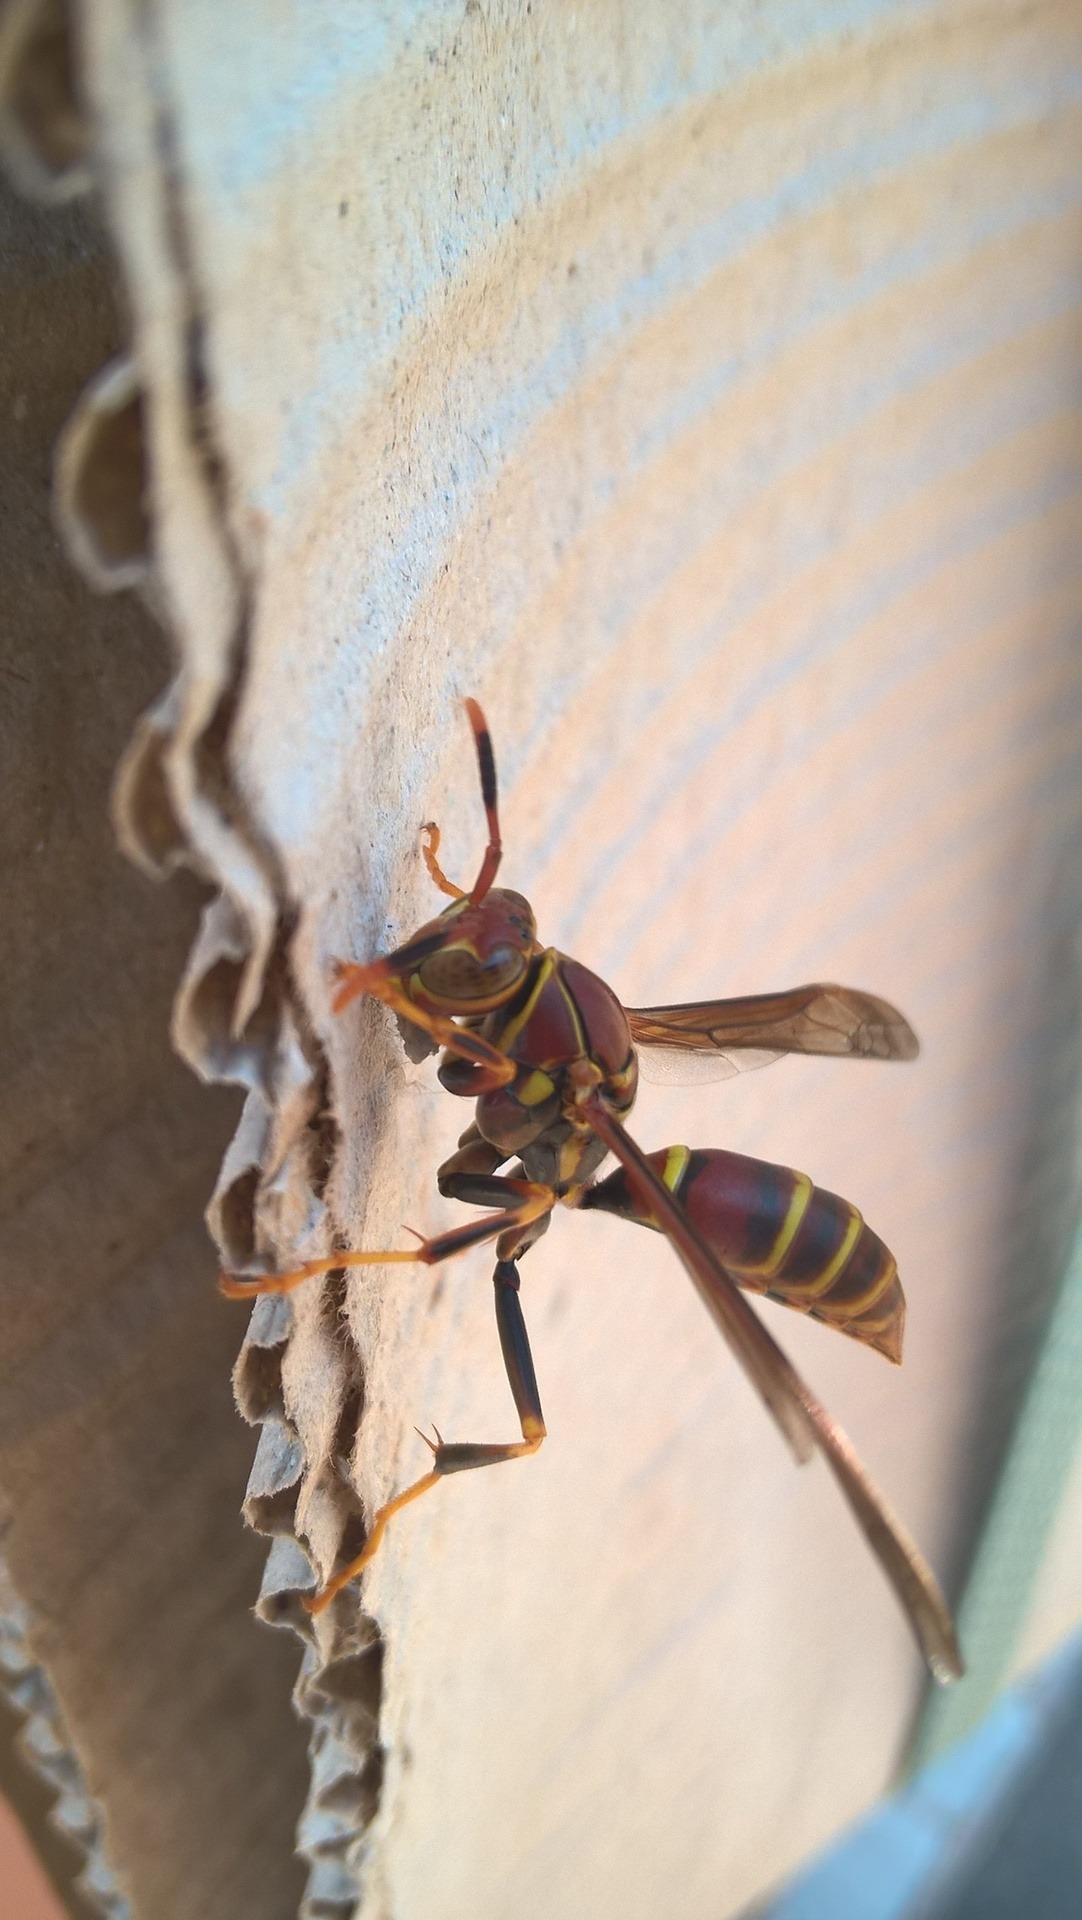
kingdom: Animalia
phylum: Arthropoda
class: Insecta
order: Hymenoptera
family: Eumenidae
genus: Polistes
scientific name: Polistes exclamans
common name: Paper wasp
